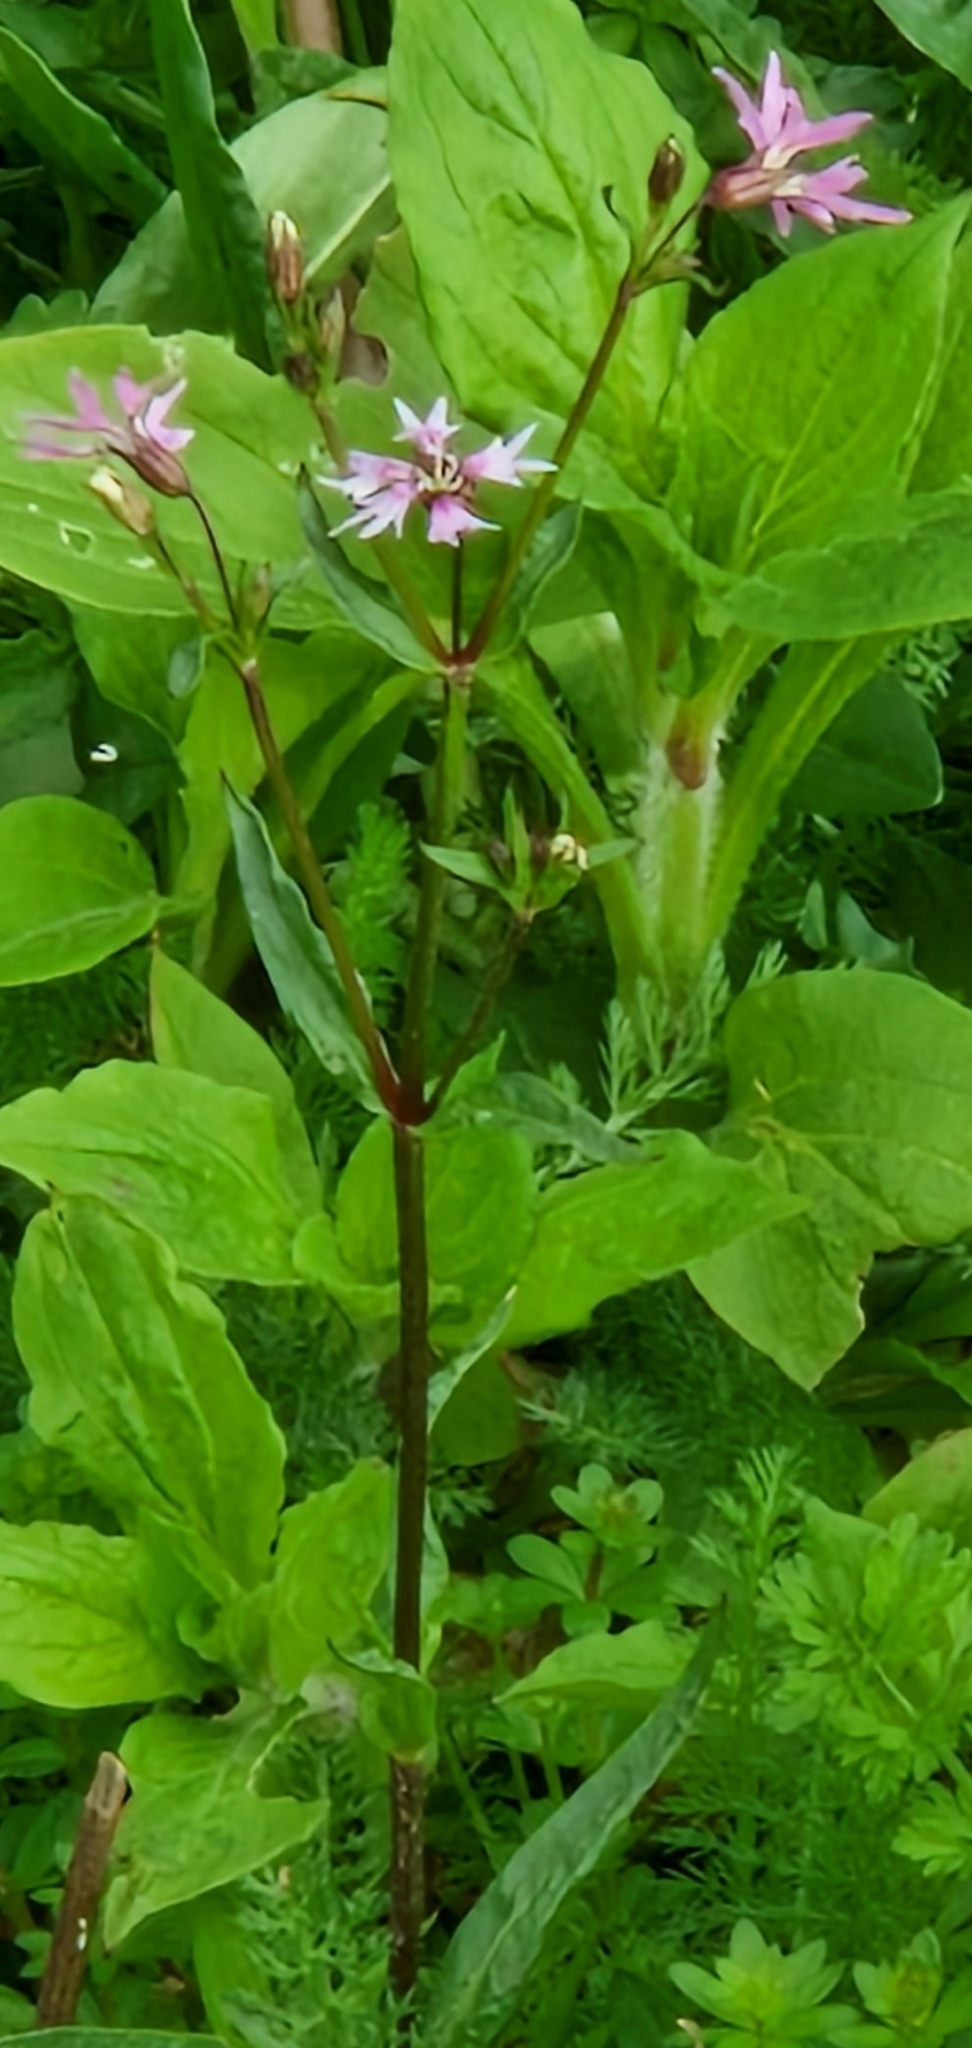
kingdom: Plantae
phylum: Tracheophyta
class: Magnoliopsida
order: Caryophyllales
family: Caryophyllaceae
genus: Silene
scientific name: Silene flos-cuculi
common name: Ragged-robin
